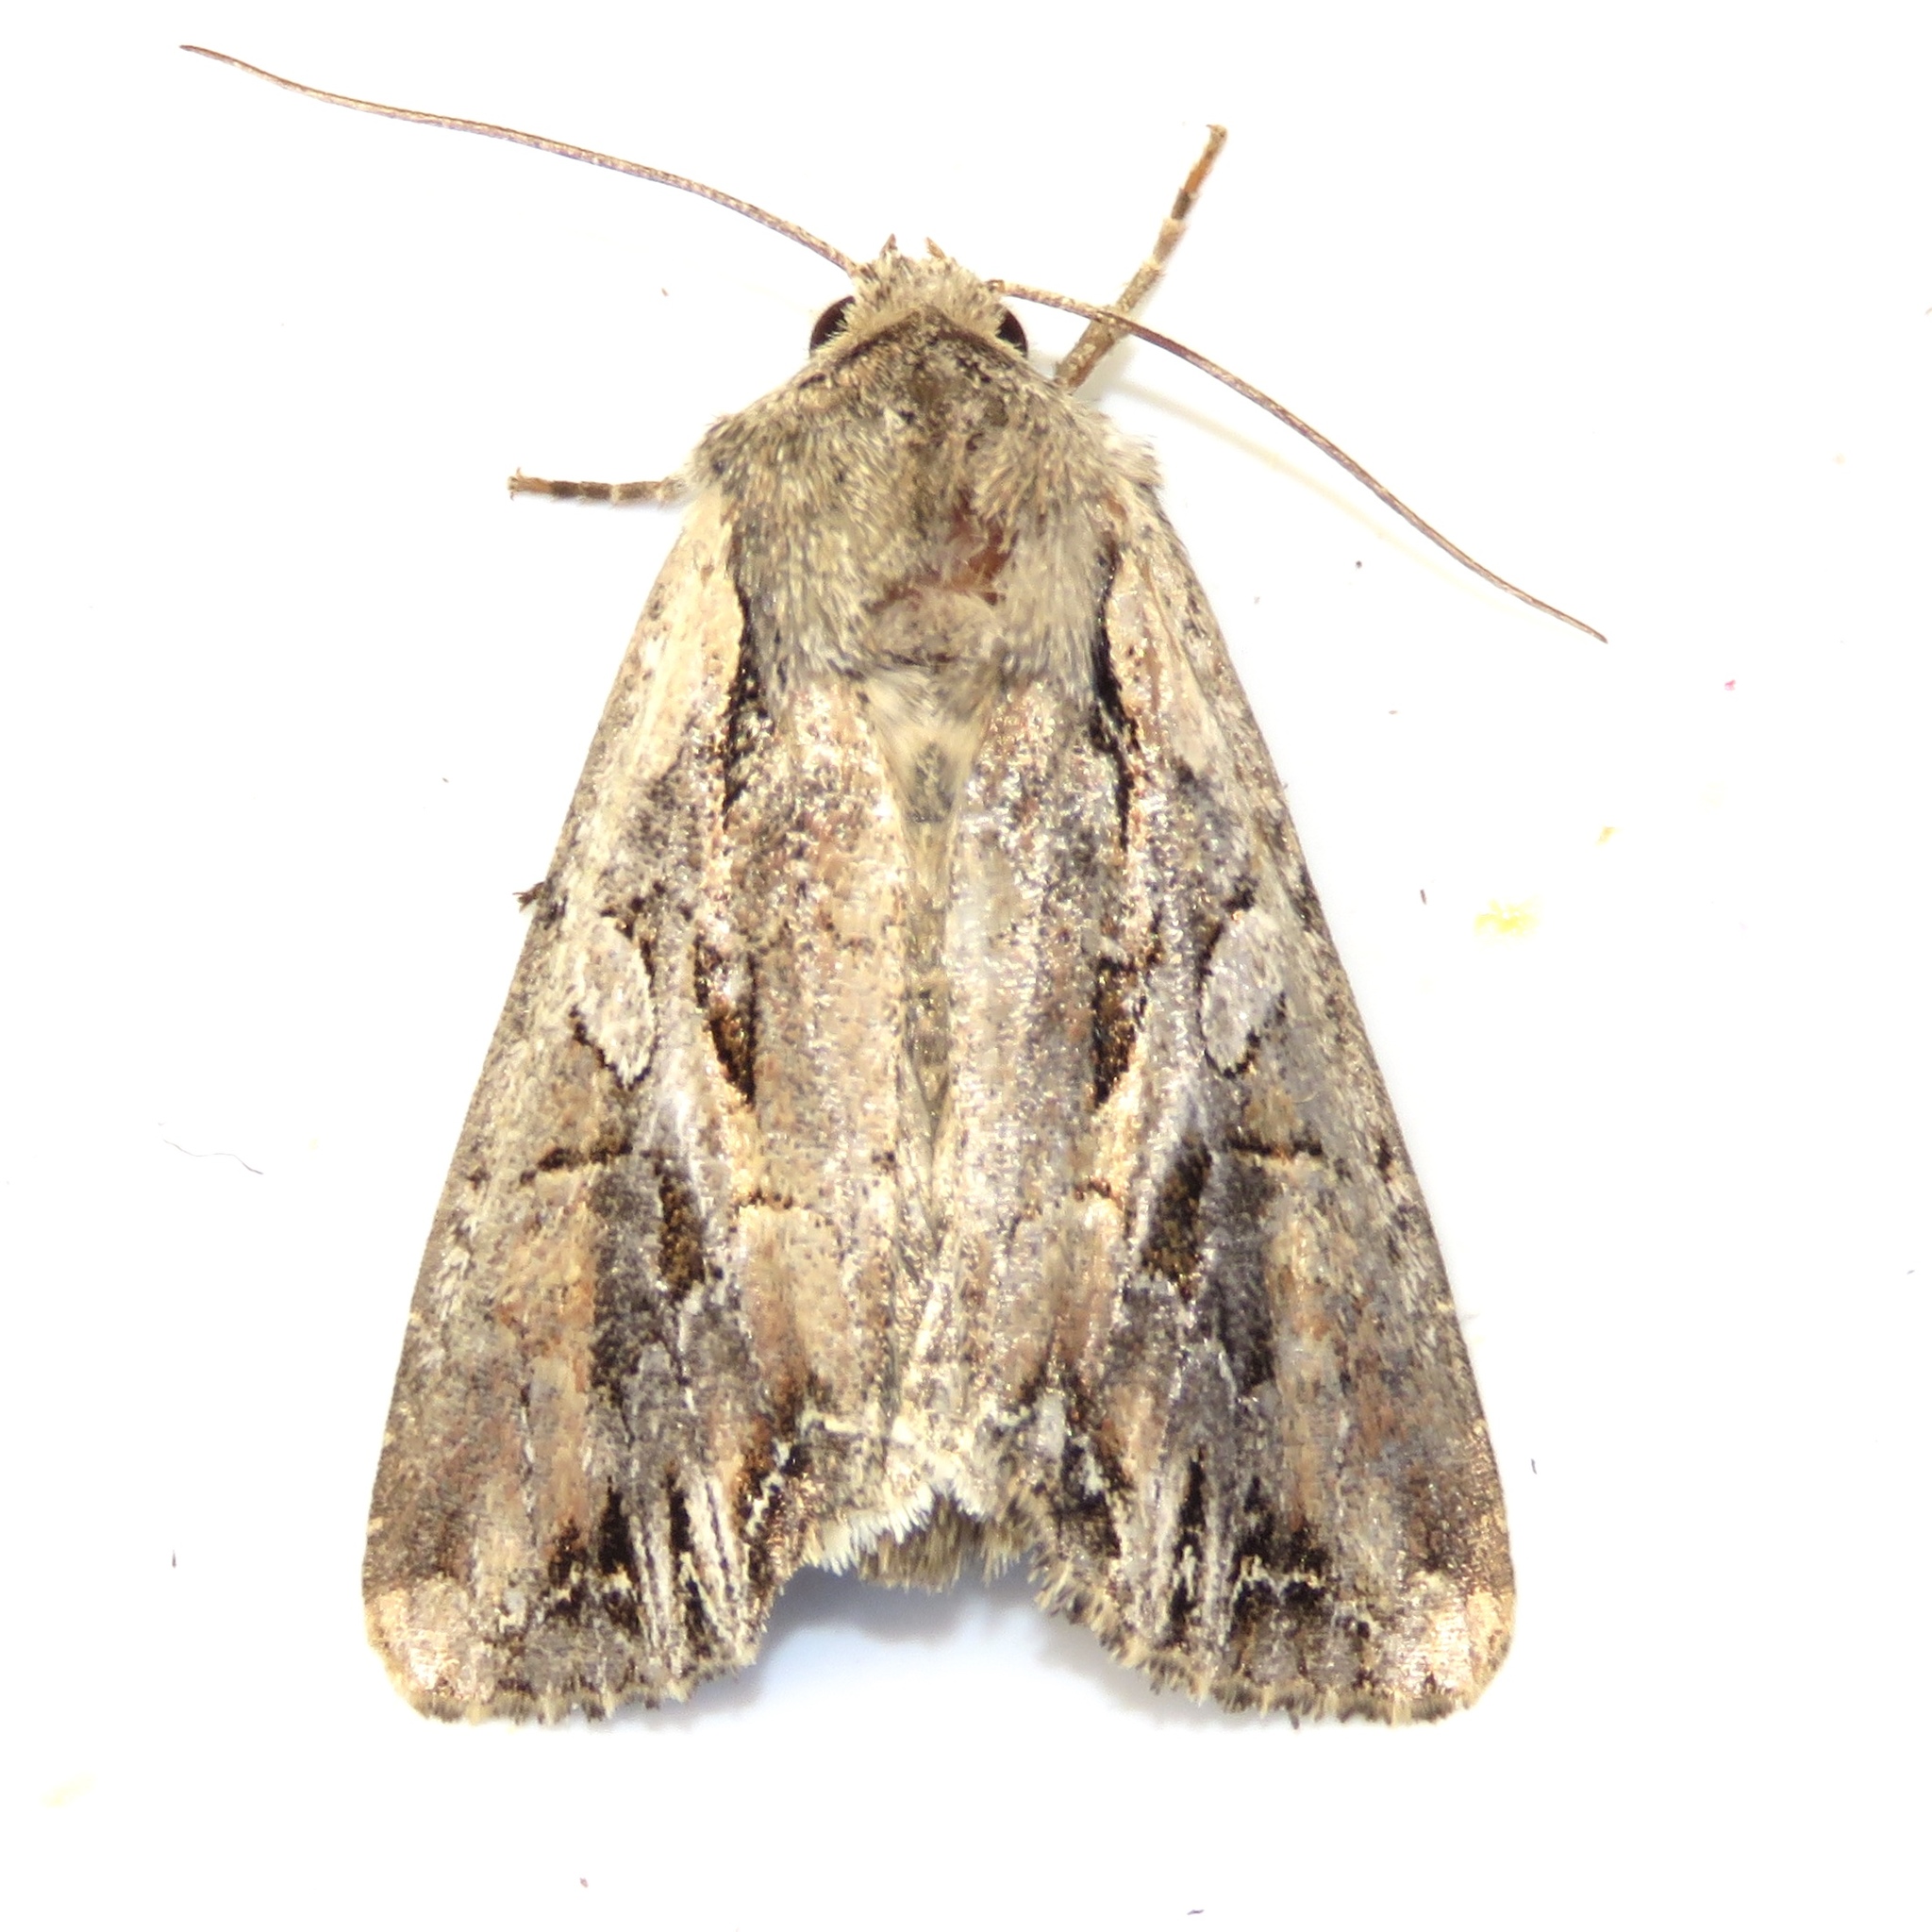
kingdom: Animalia
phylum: Arthropoda
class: Insecta
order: Lepidoptera
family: Noctuidae
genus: Lacanobia
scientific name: Lacanobia atlantica
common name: Atlantic arches moth
